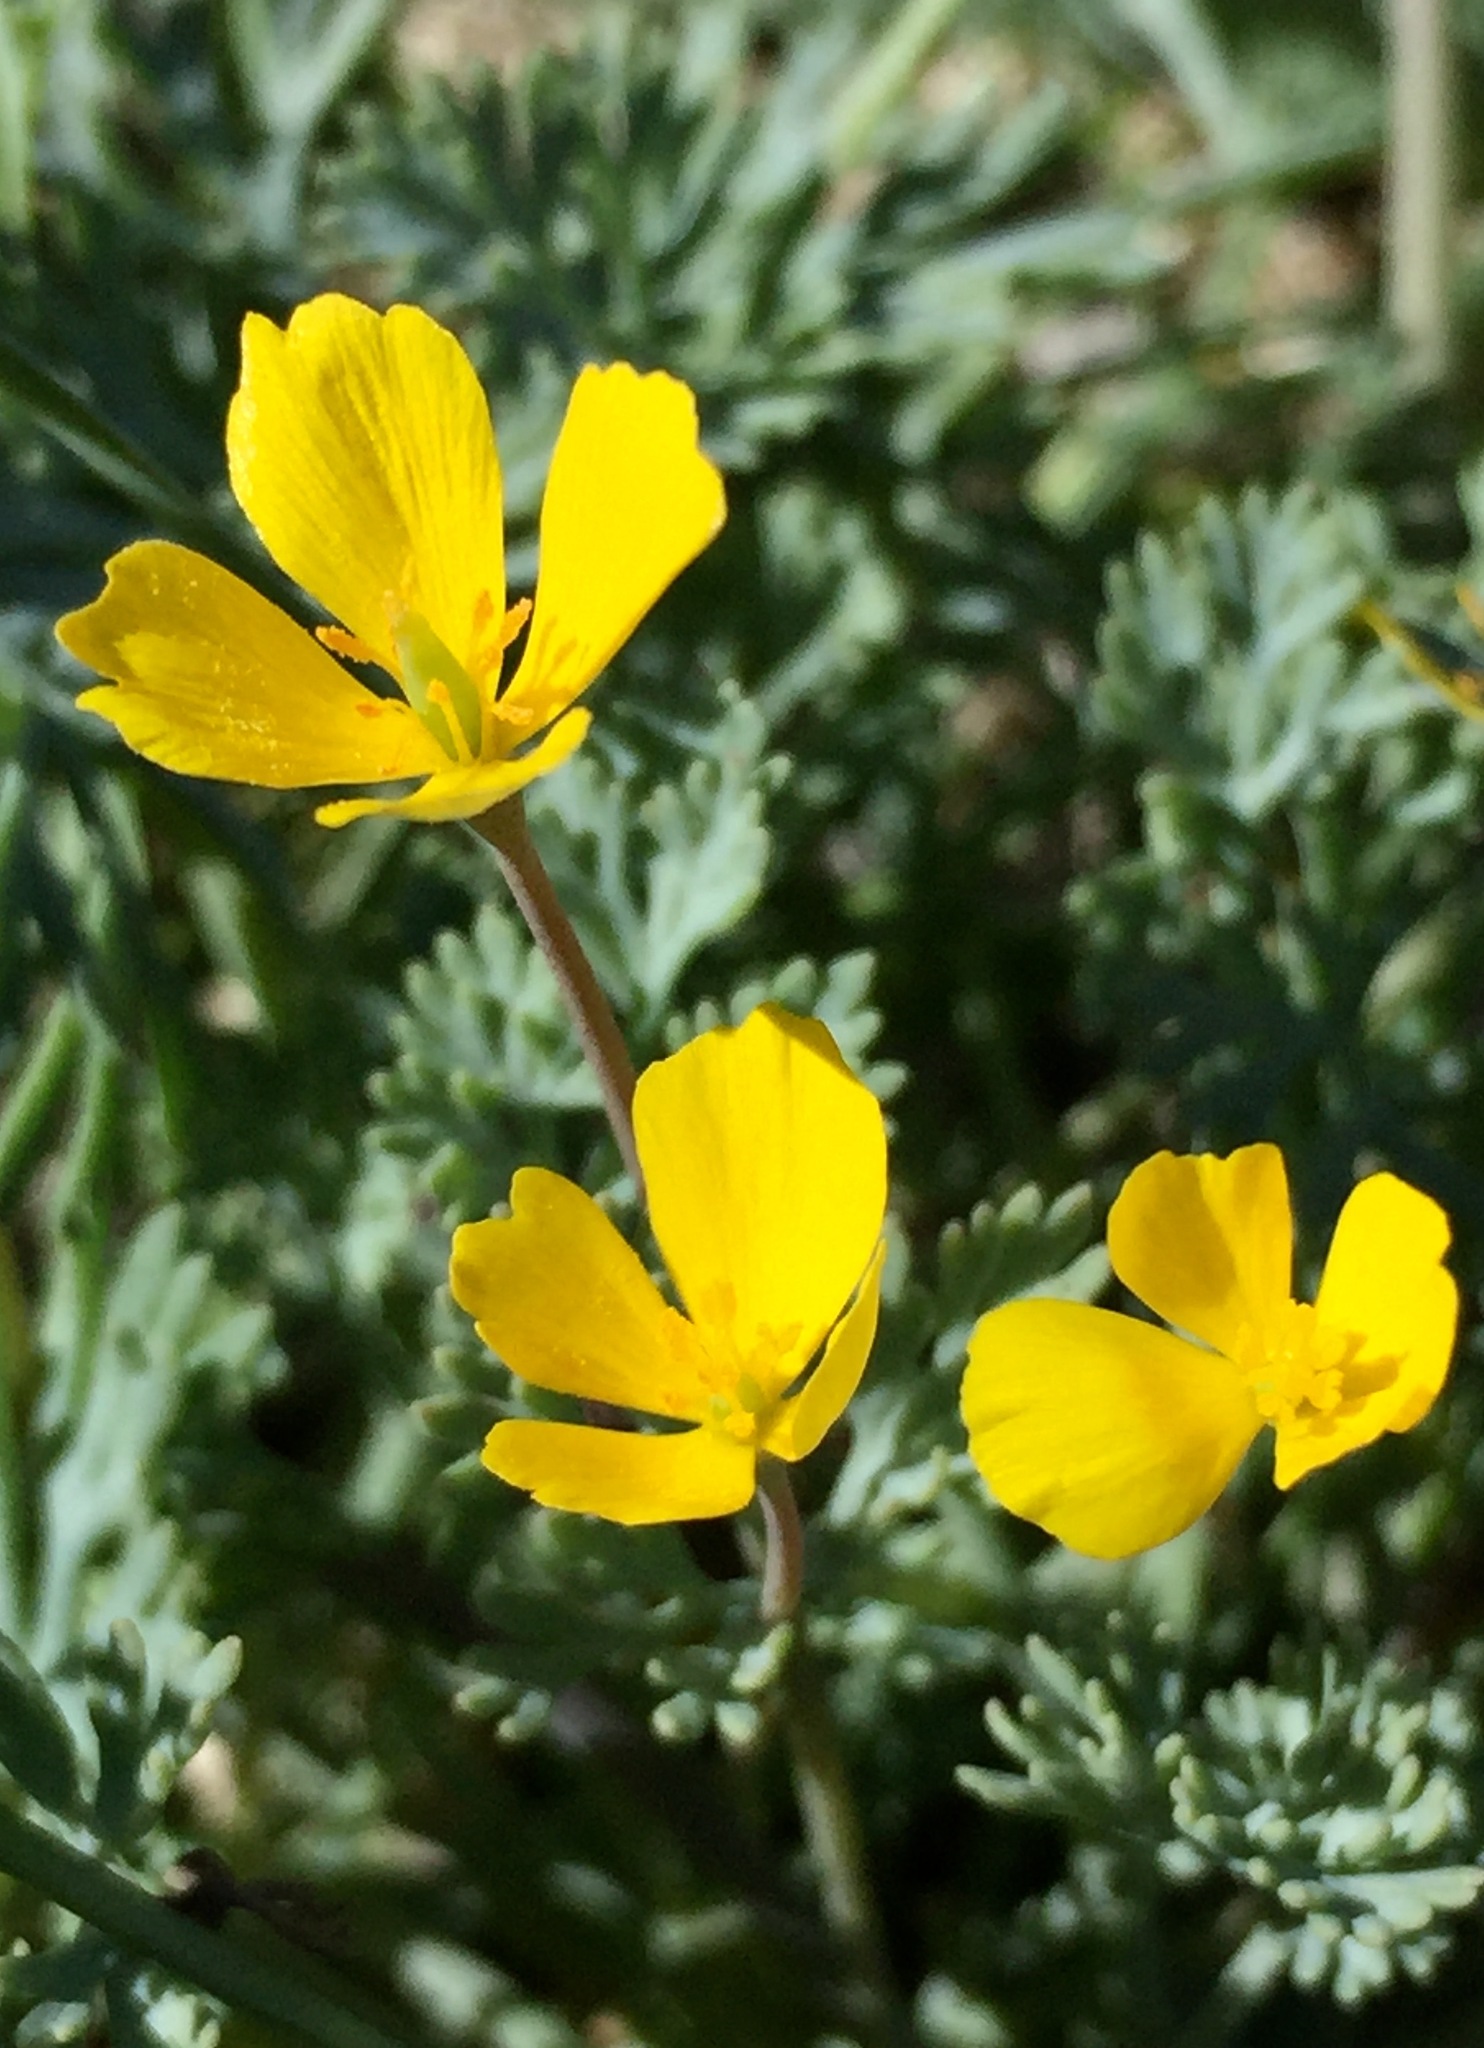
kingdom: Plantae
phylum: Tracheophyta
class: Magnoliopsida
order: Ranunculales
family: Papaveraceae
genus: Eschscholzia
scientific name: Eschscholzia minutiflora
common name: Small-flower california-poppy
